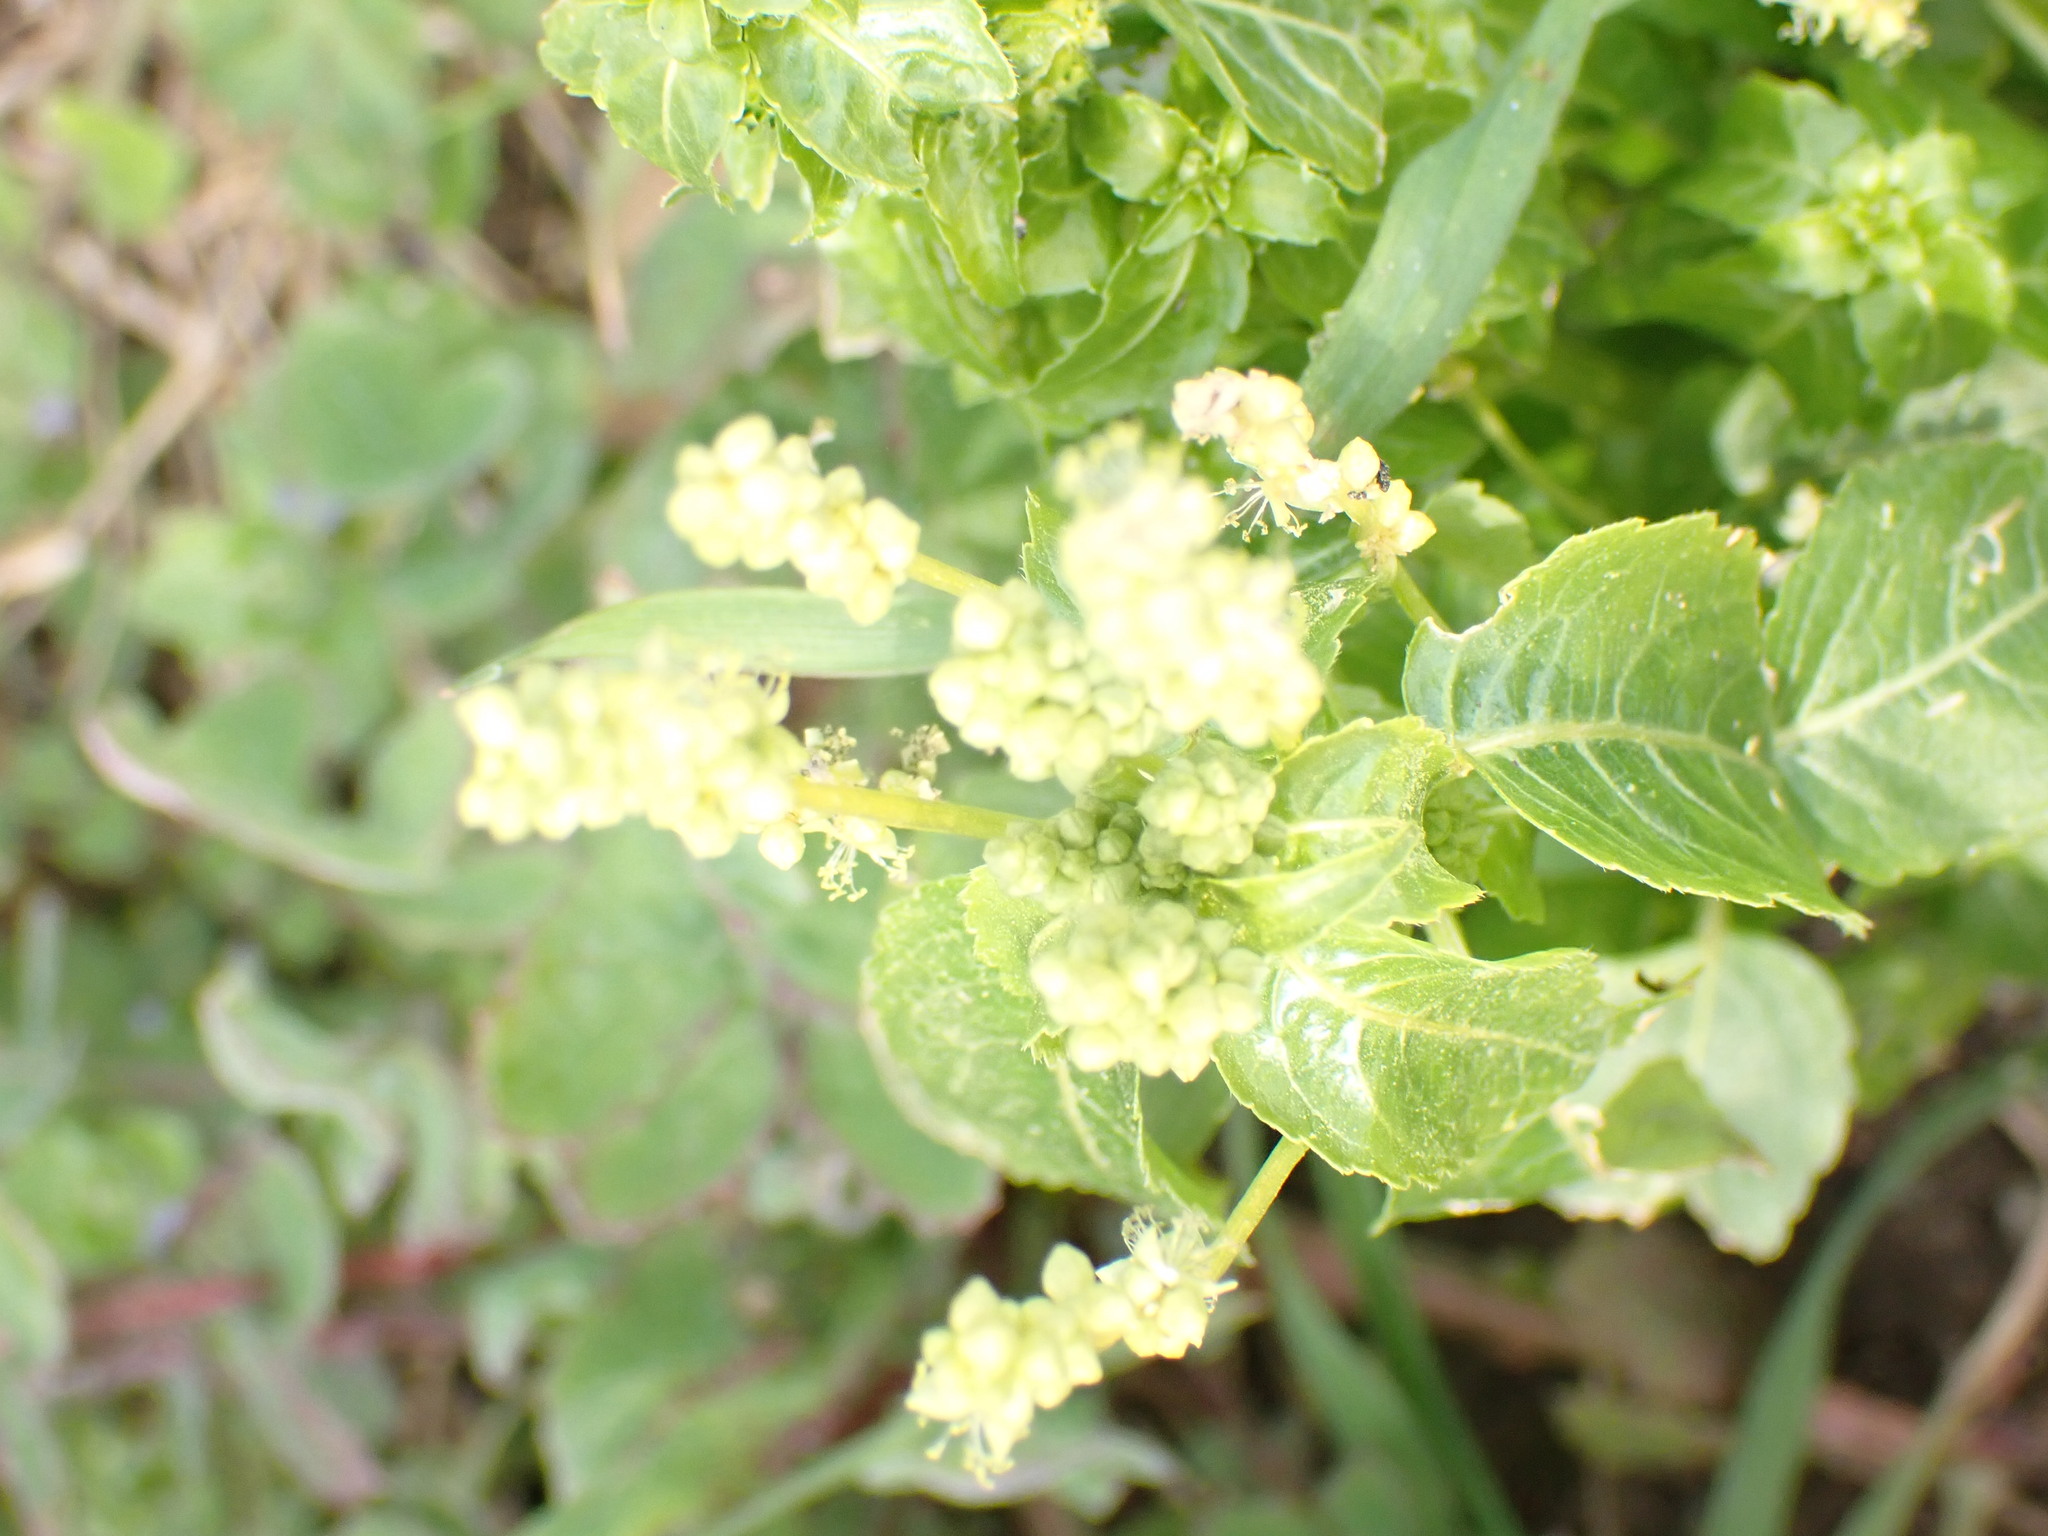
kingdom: Plantae
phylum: Tracheophyta
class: Magnoliopsida
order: Malpighiales
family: Euphorbiaceae
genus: Mercurialis
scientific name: Mercurialis annua
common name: Annual mercury
